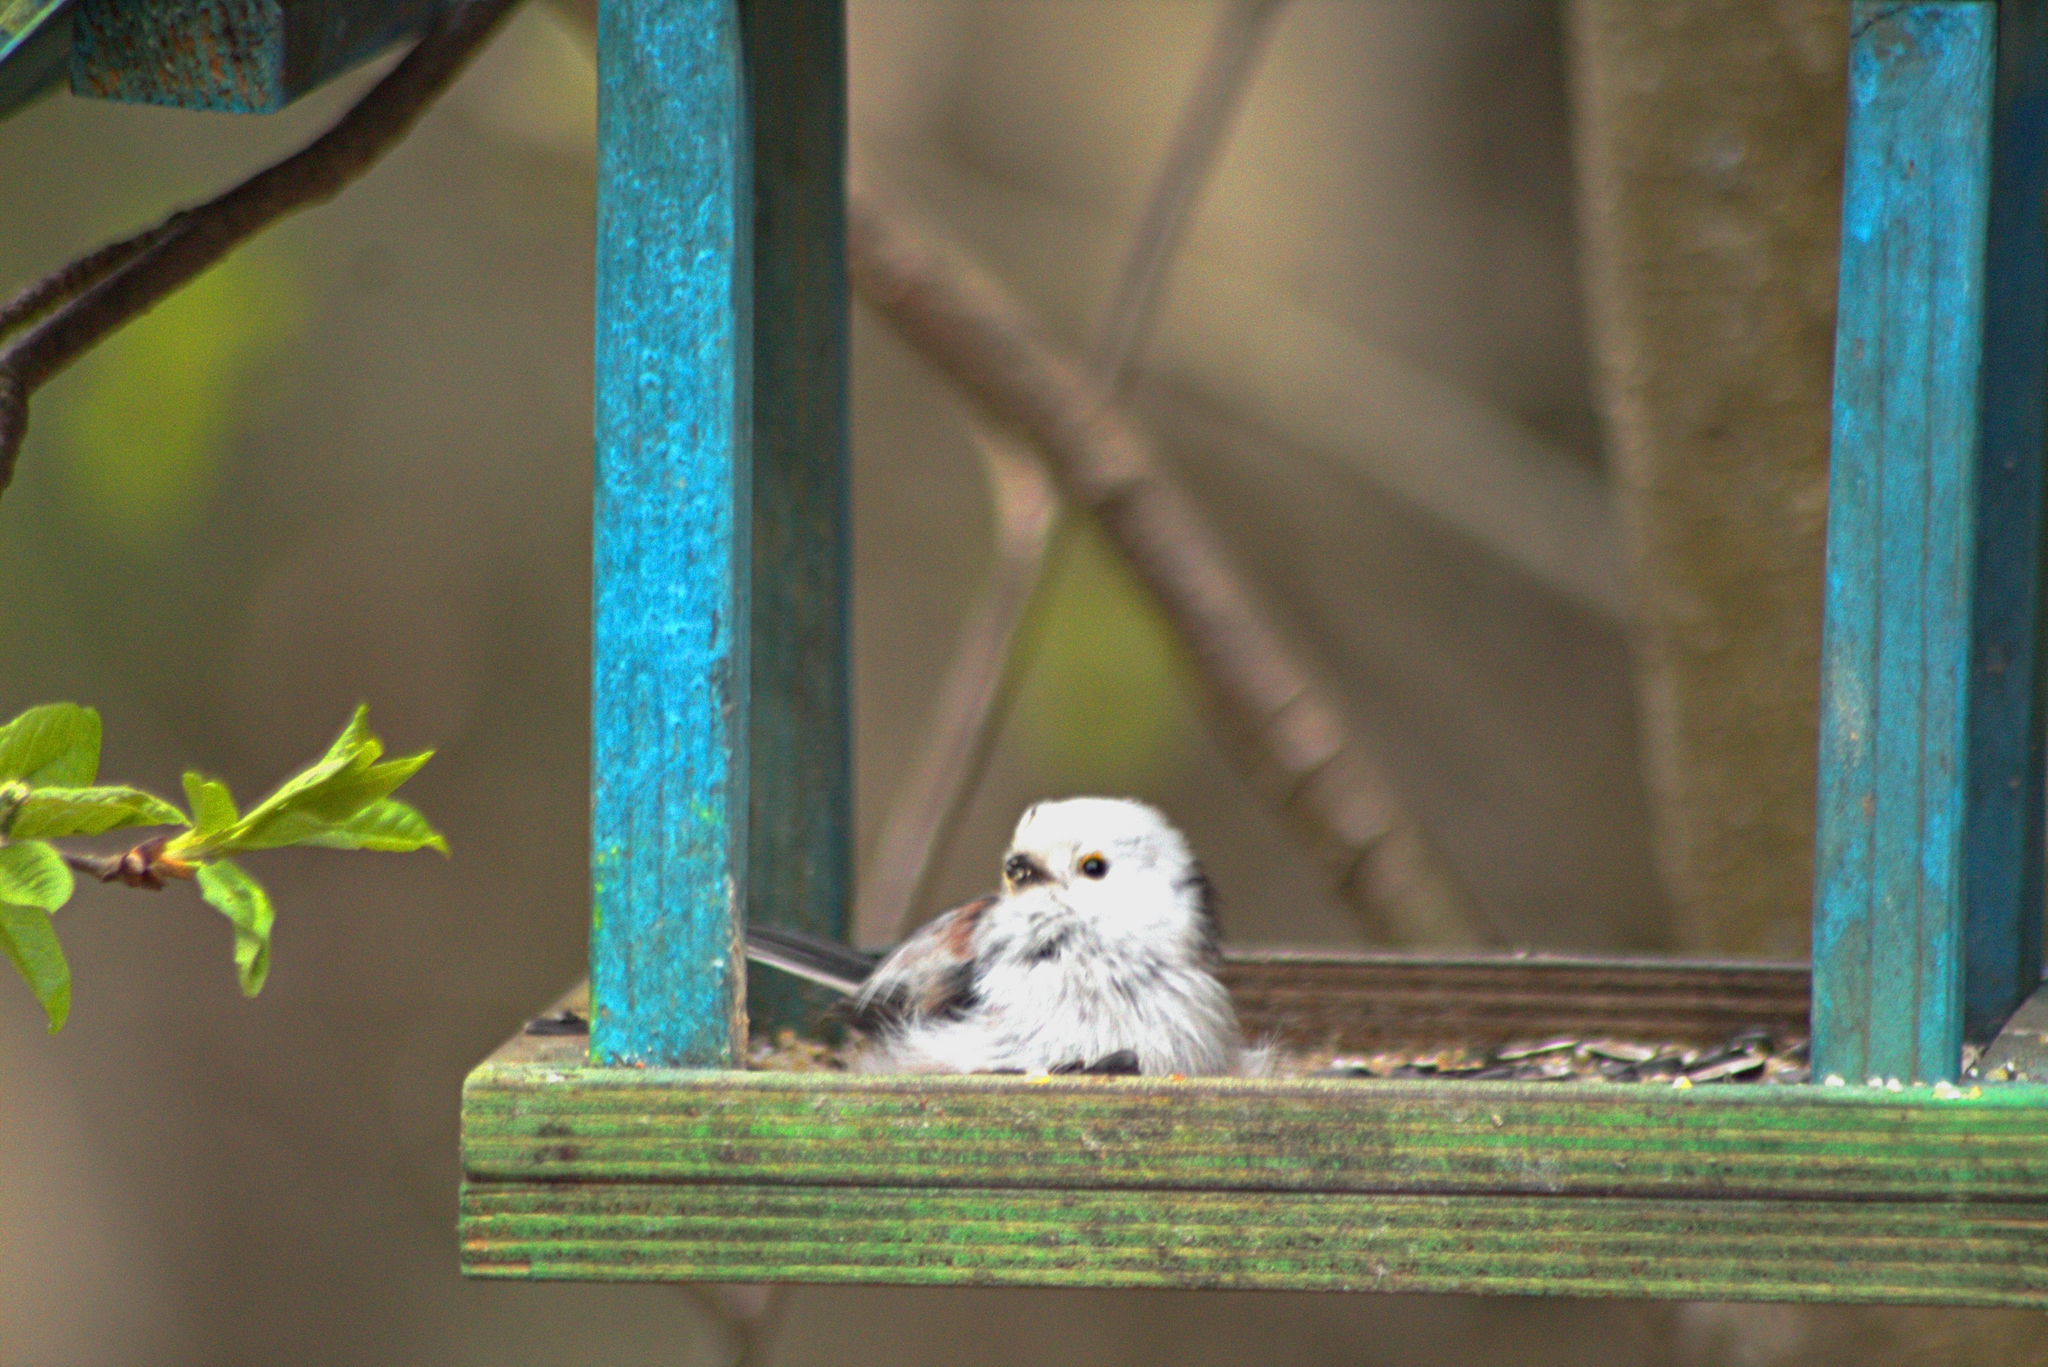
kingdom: Animalia
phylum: Chordata
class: Aves
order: Passeriformes
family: Aegithalidae
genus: Aegithalos
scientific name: Aegithalos caudatus
